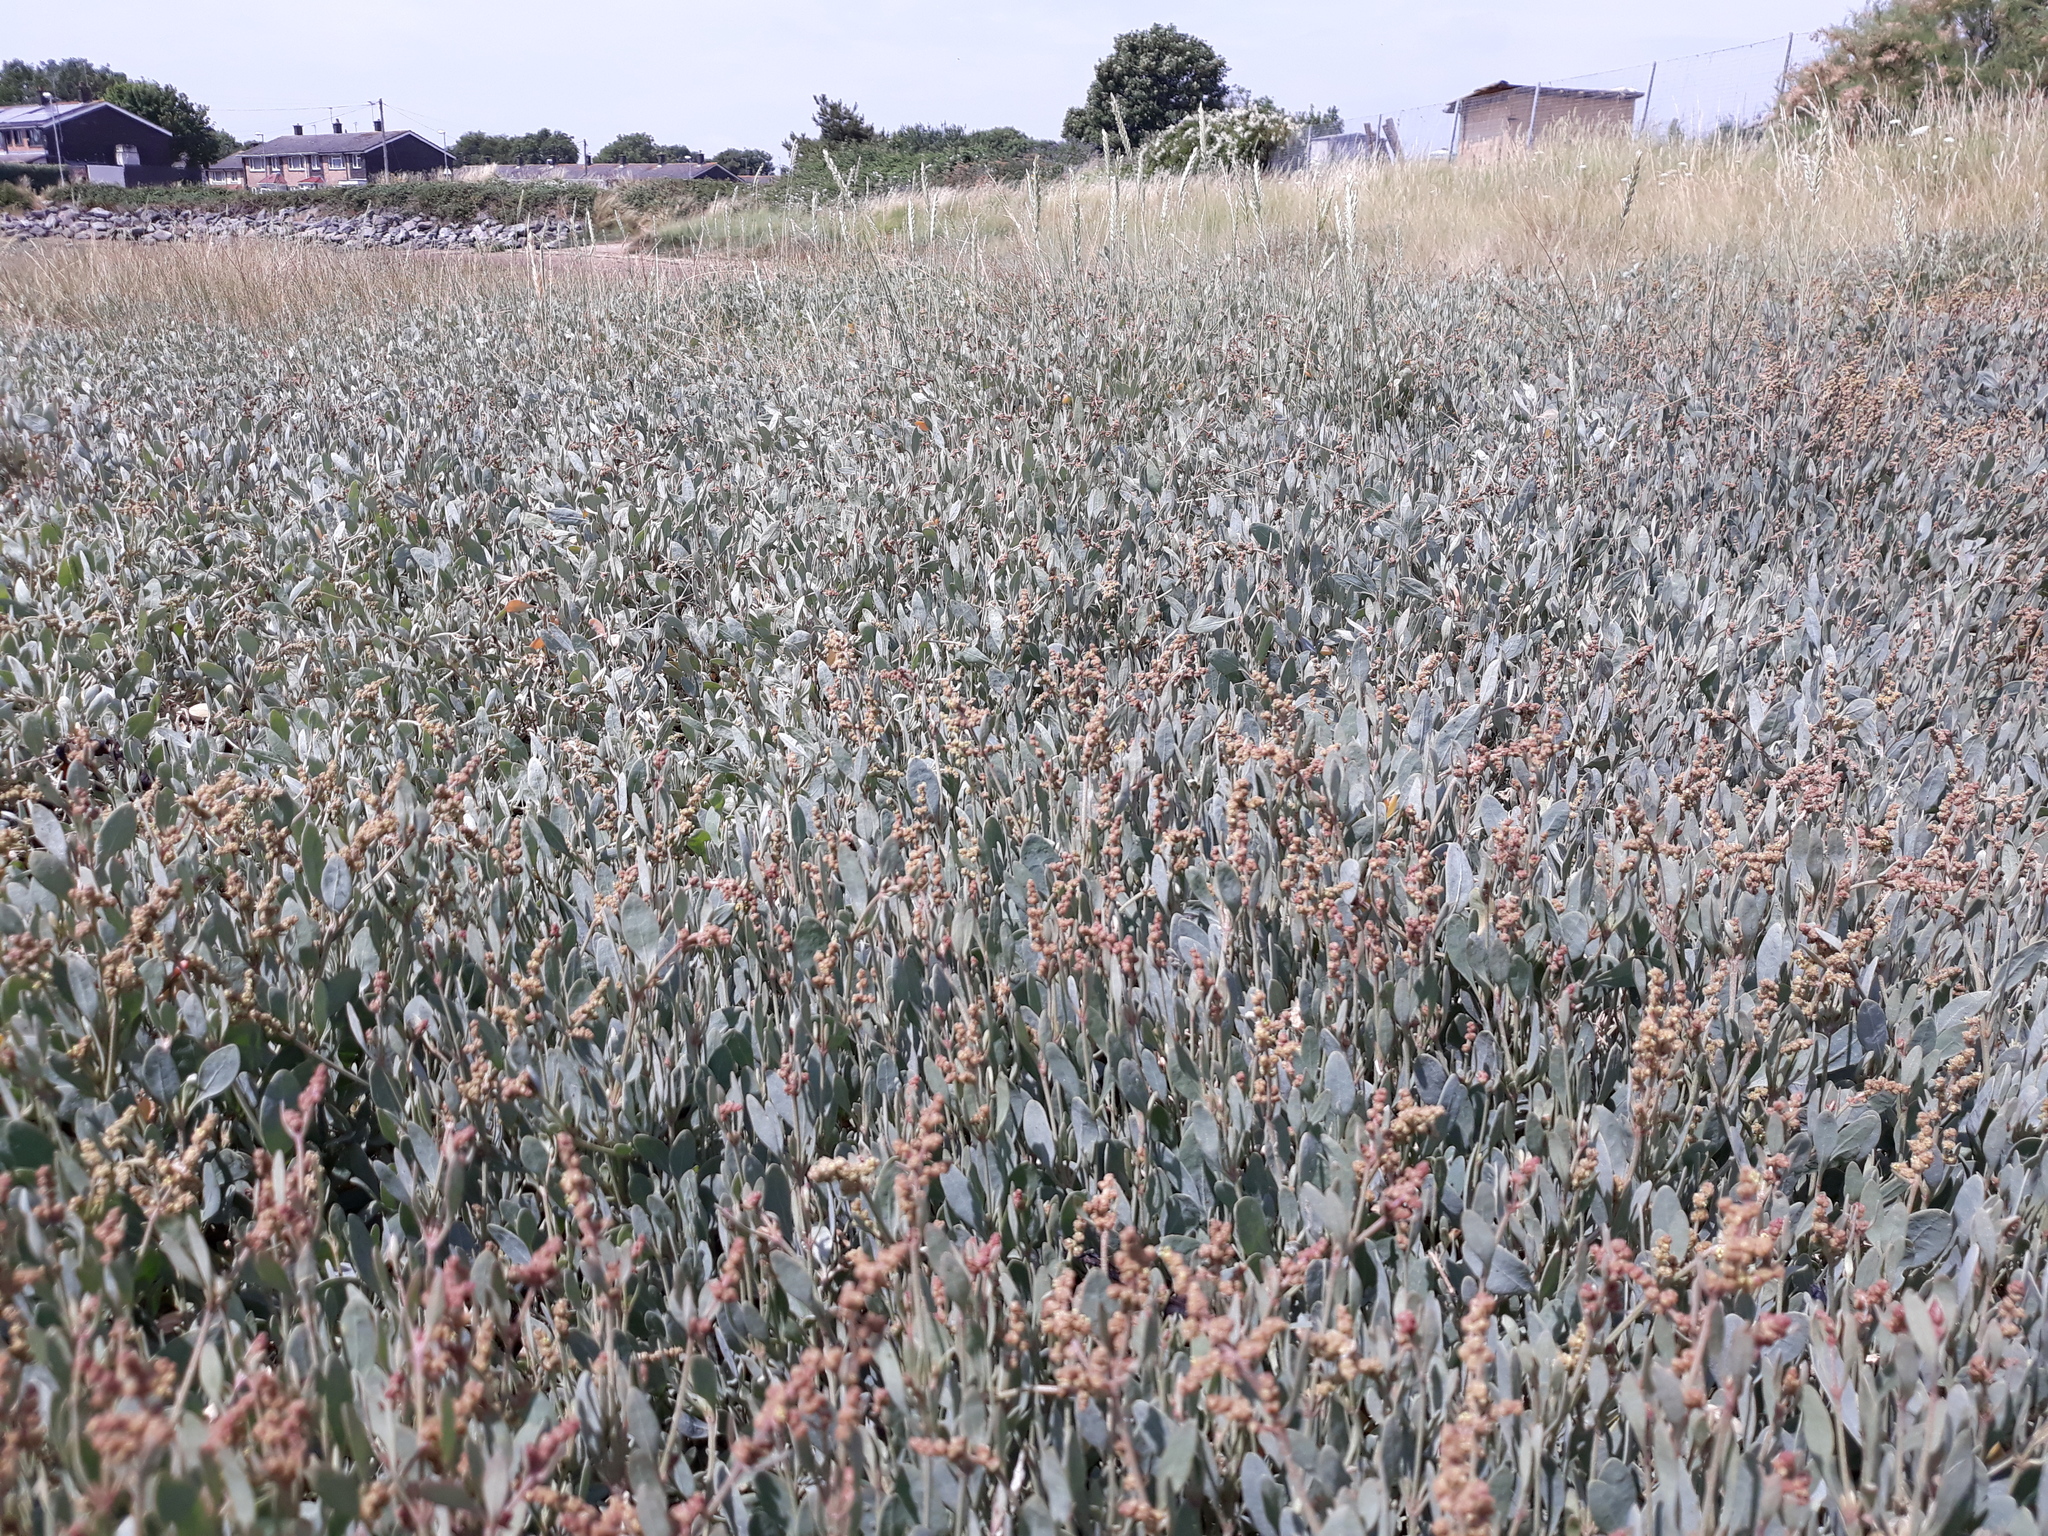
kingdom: Plantae
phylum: Tracheophyta
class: Magnoliopsida
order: Caryophyllales
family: Amaranthaceae
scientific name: Amaranthaceae
